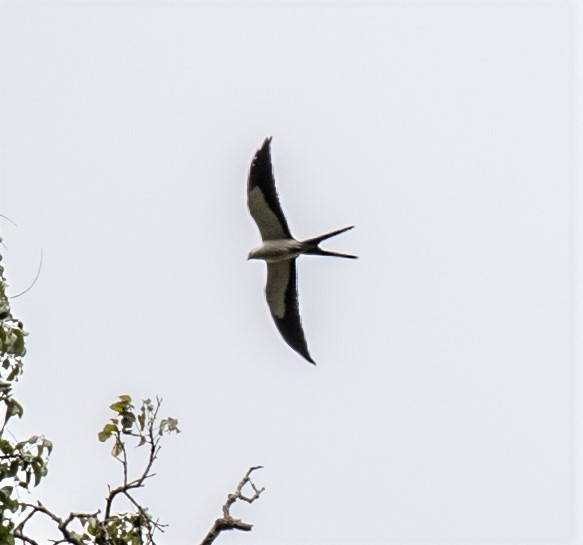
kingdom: Animalia
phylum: Chordata
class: Aves
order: Accipitriformes
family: Accipitridae
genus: Elanoides
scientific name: Elanoides forficatus
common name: Swallow-tailed kite
